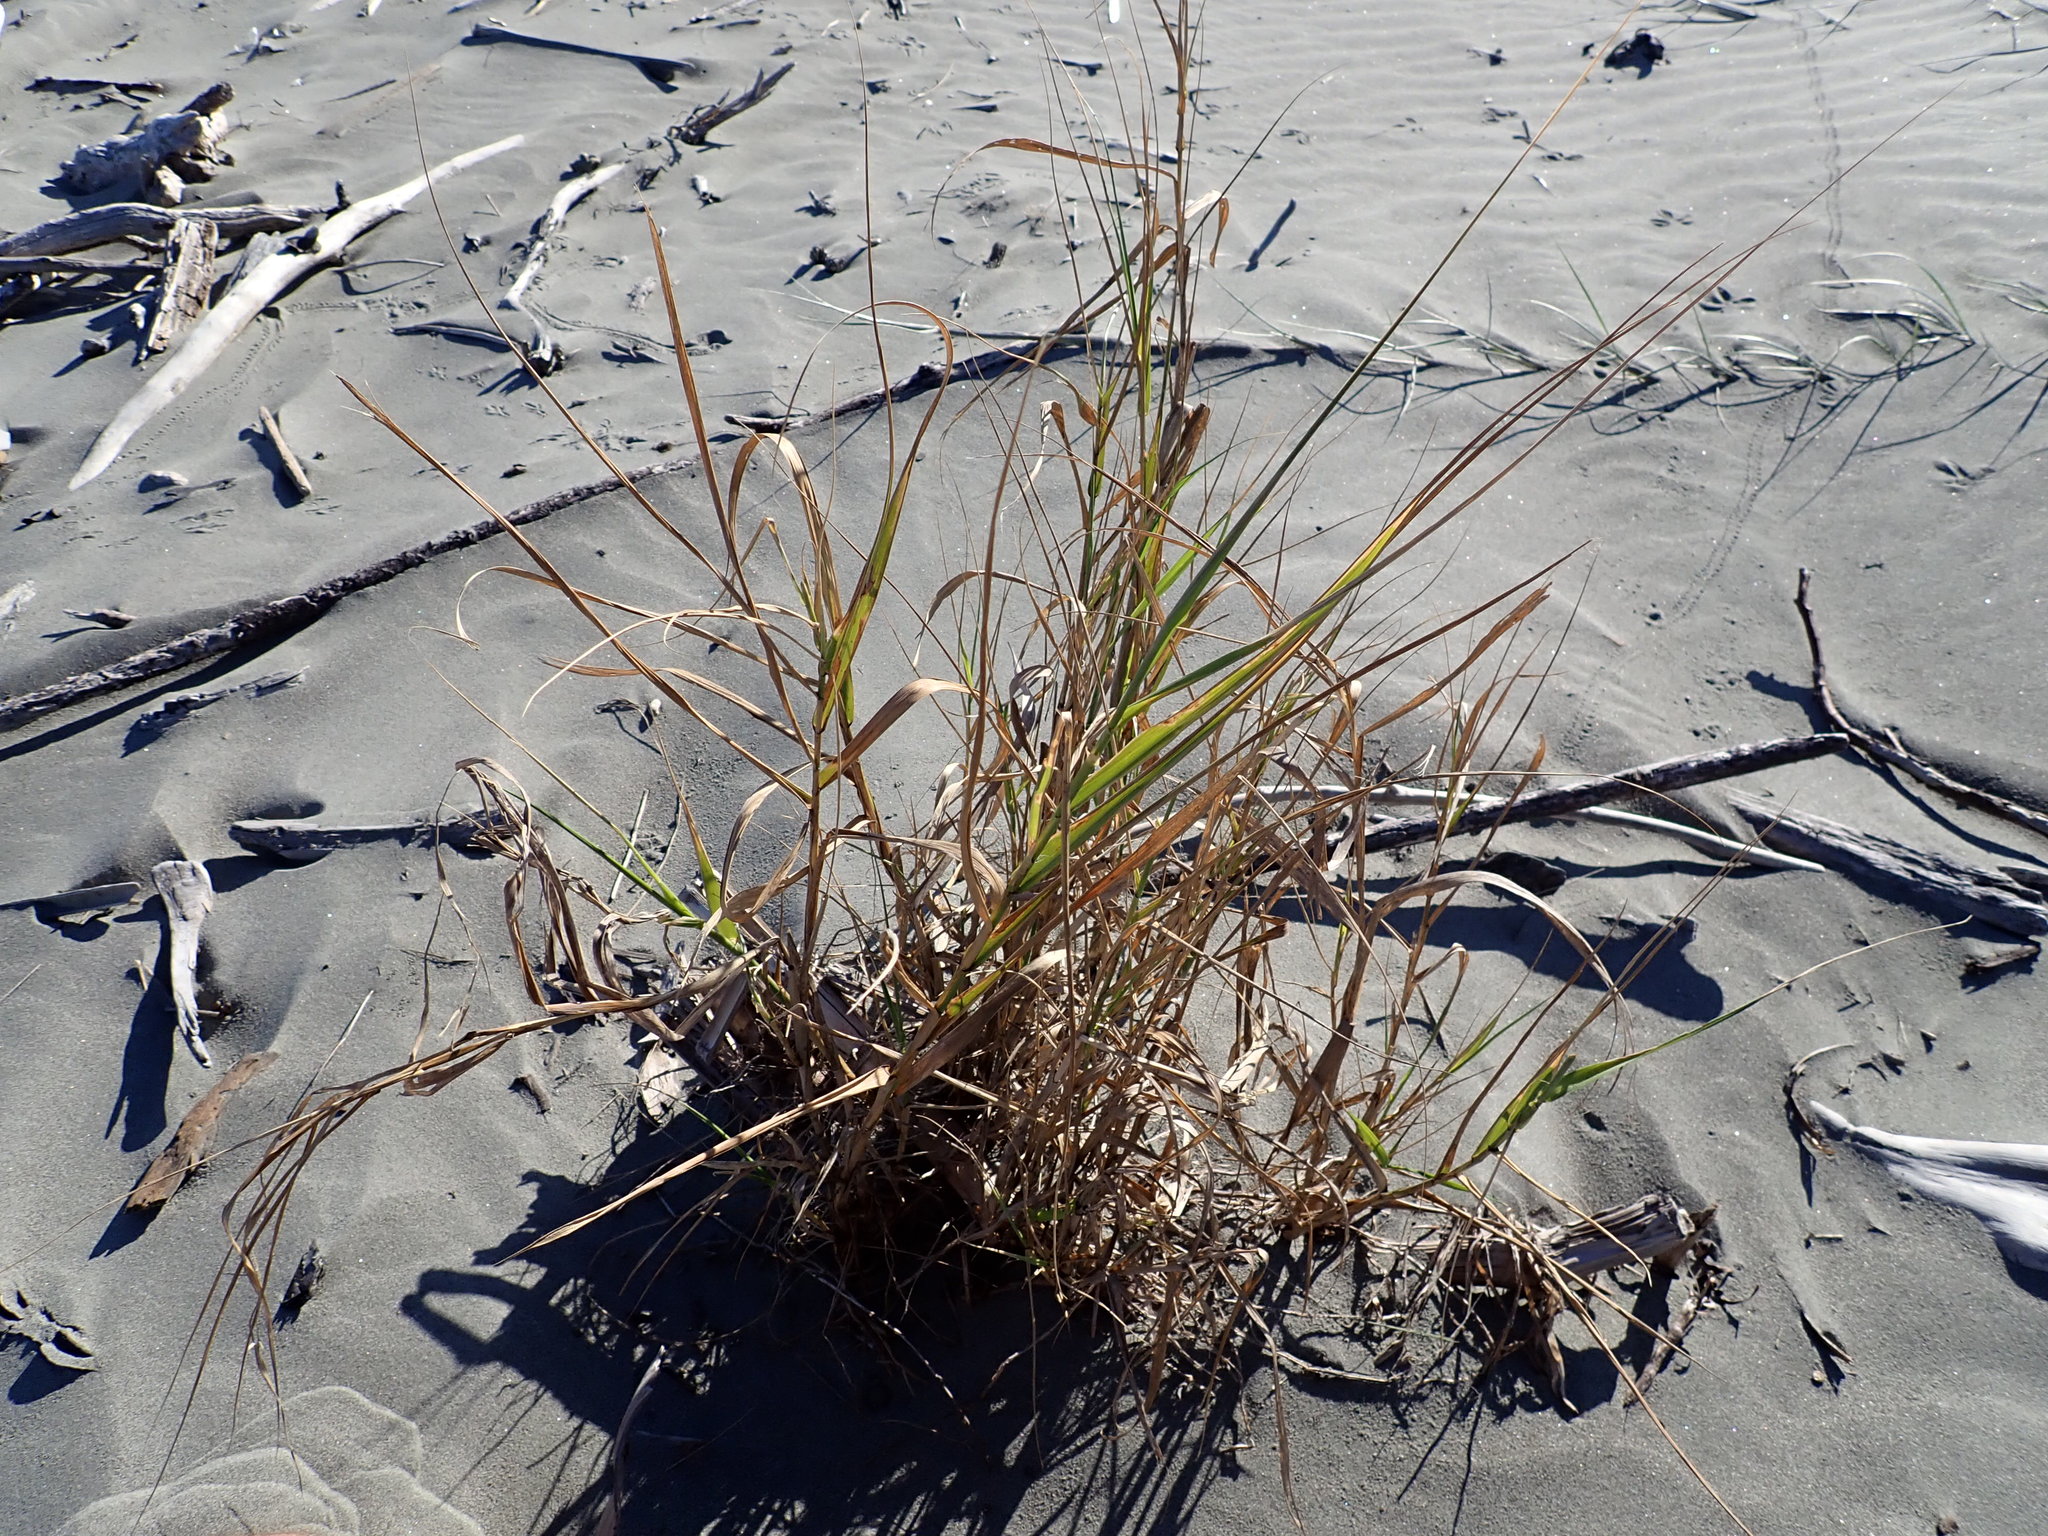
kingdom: Plantae
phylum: Tracheophyta
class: Liliopsida
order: Poales
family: Poaceae
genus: Phragmites
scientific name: Phragmites karka
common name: Tropical reed
